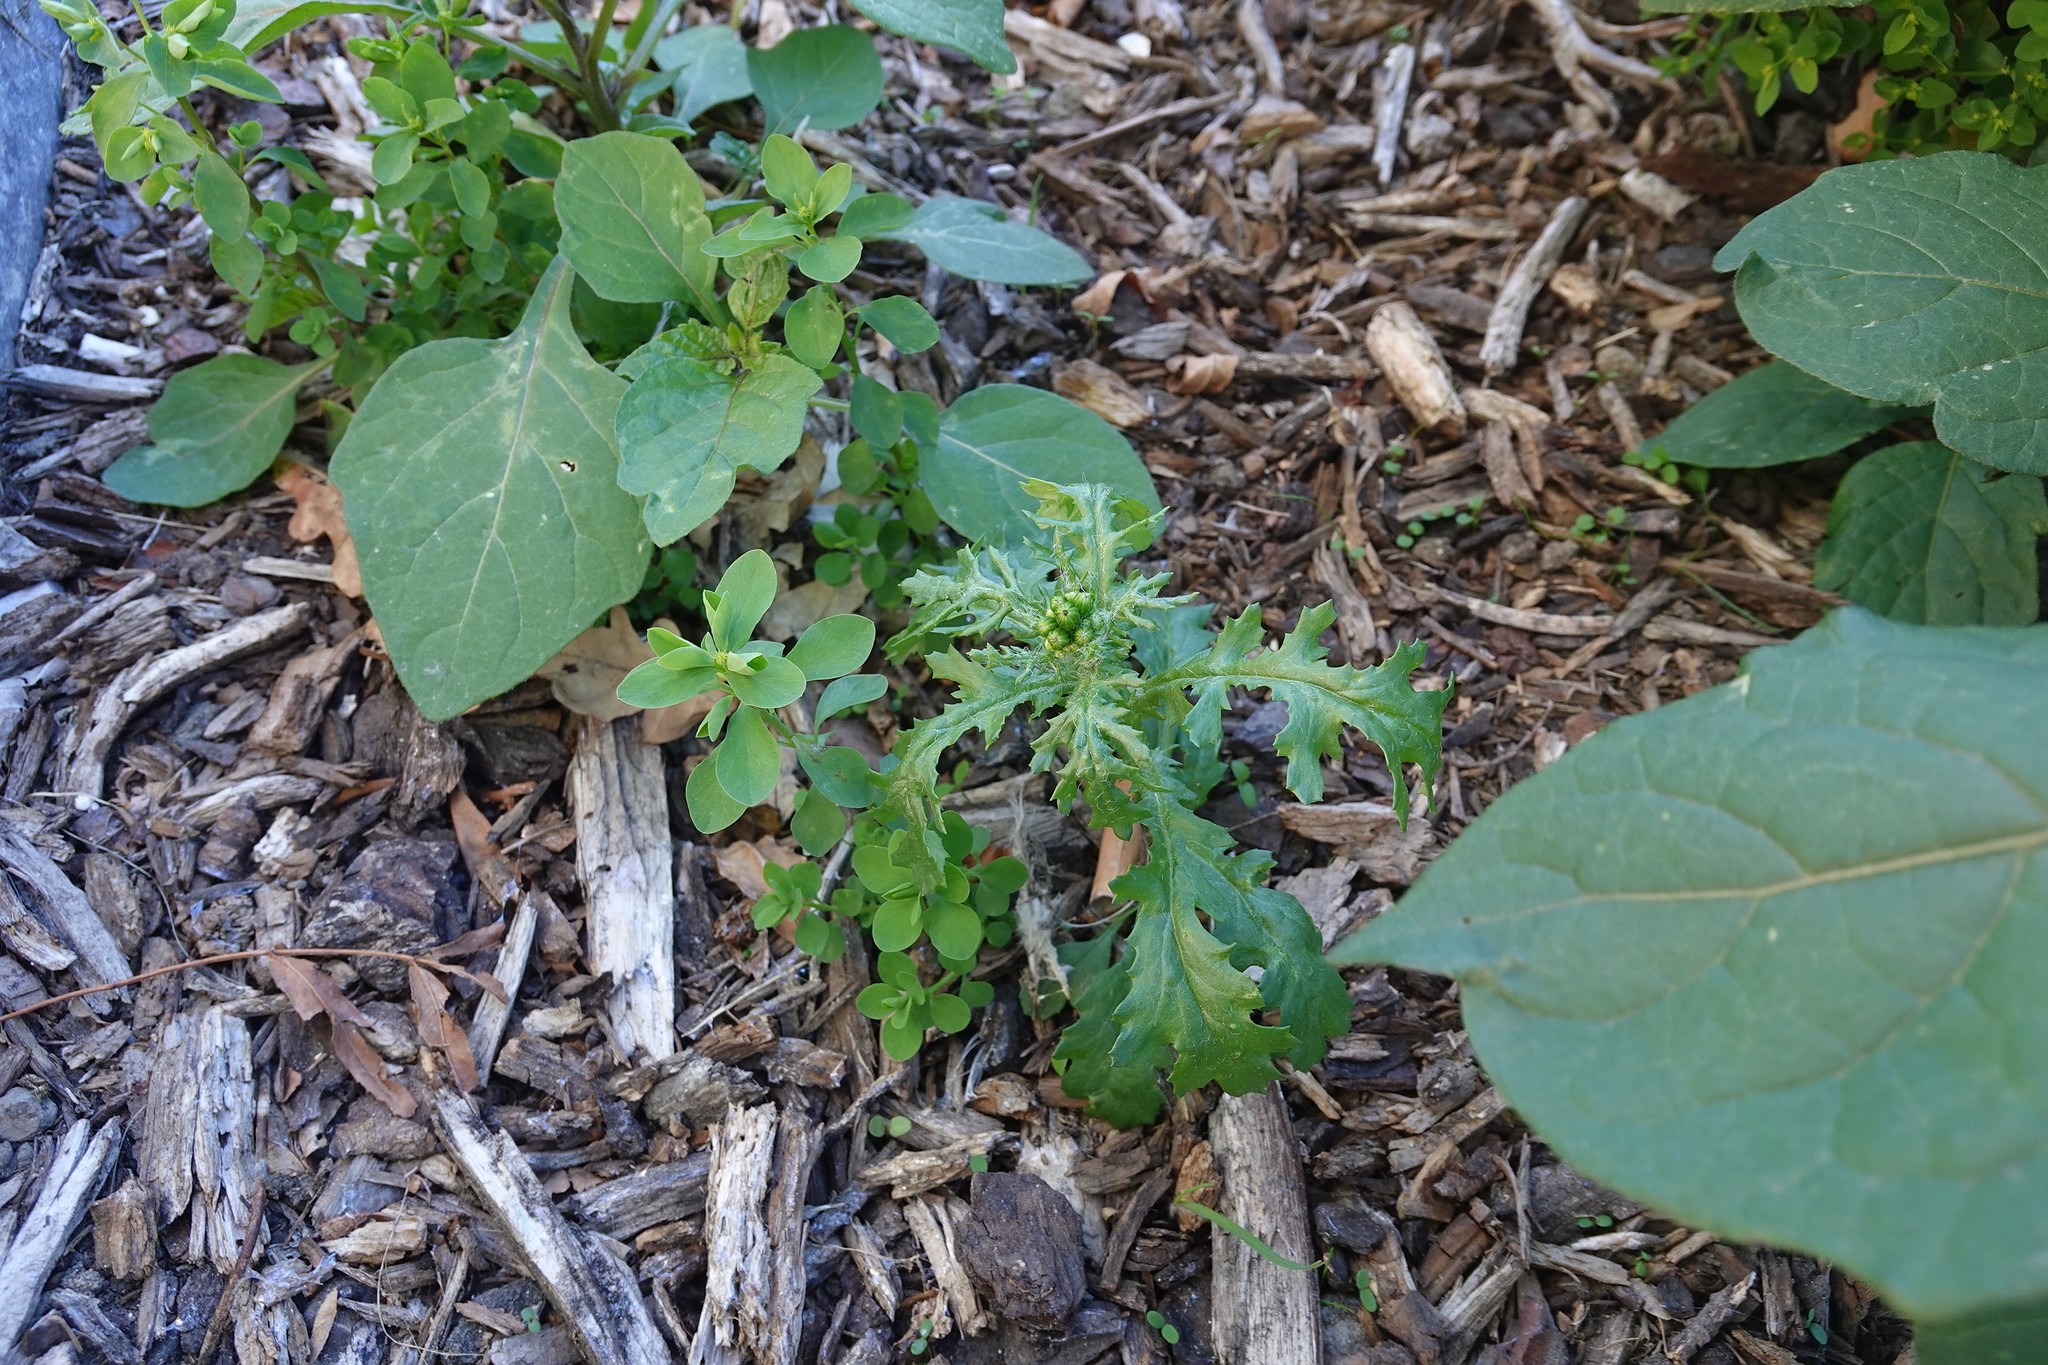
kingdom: Plantae
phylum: Tracheophyta
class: Magnoliopsida
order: Asterales
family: Asteraceae
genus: Senecio
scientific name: Senecio vulgaris
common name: Old-man-in-the-spring
